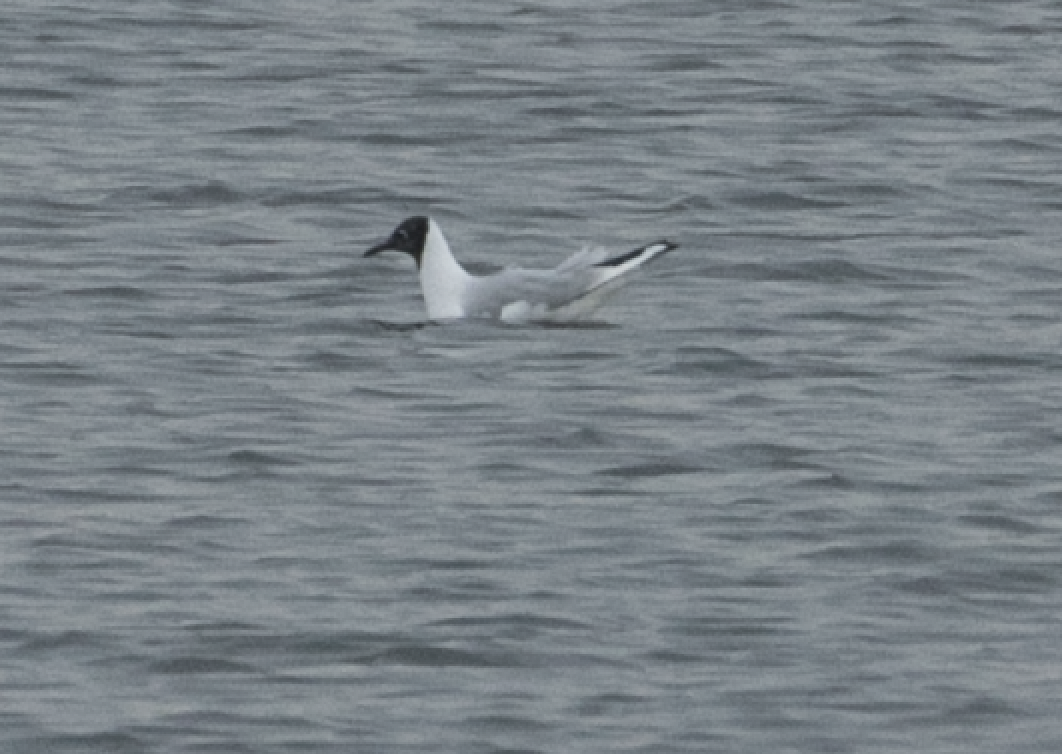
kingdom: Animalia
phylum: Chordata
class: Aves
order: Charadriiformes
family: Laridae
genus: Chroicocephalus
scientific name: Chroicocephalus ridibundus
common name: Black-headed gull
